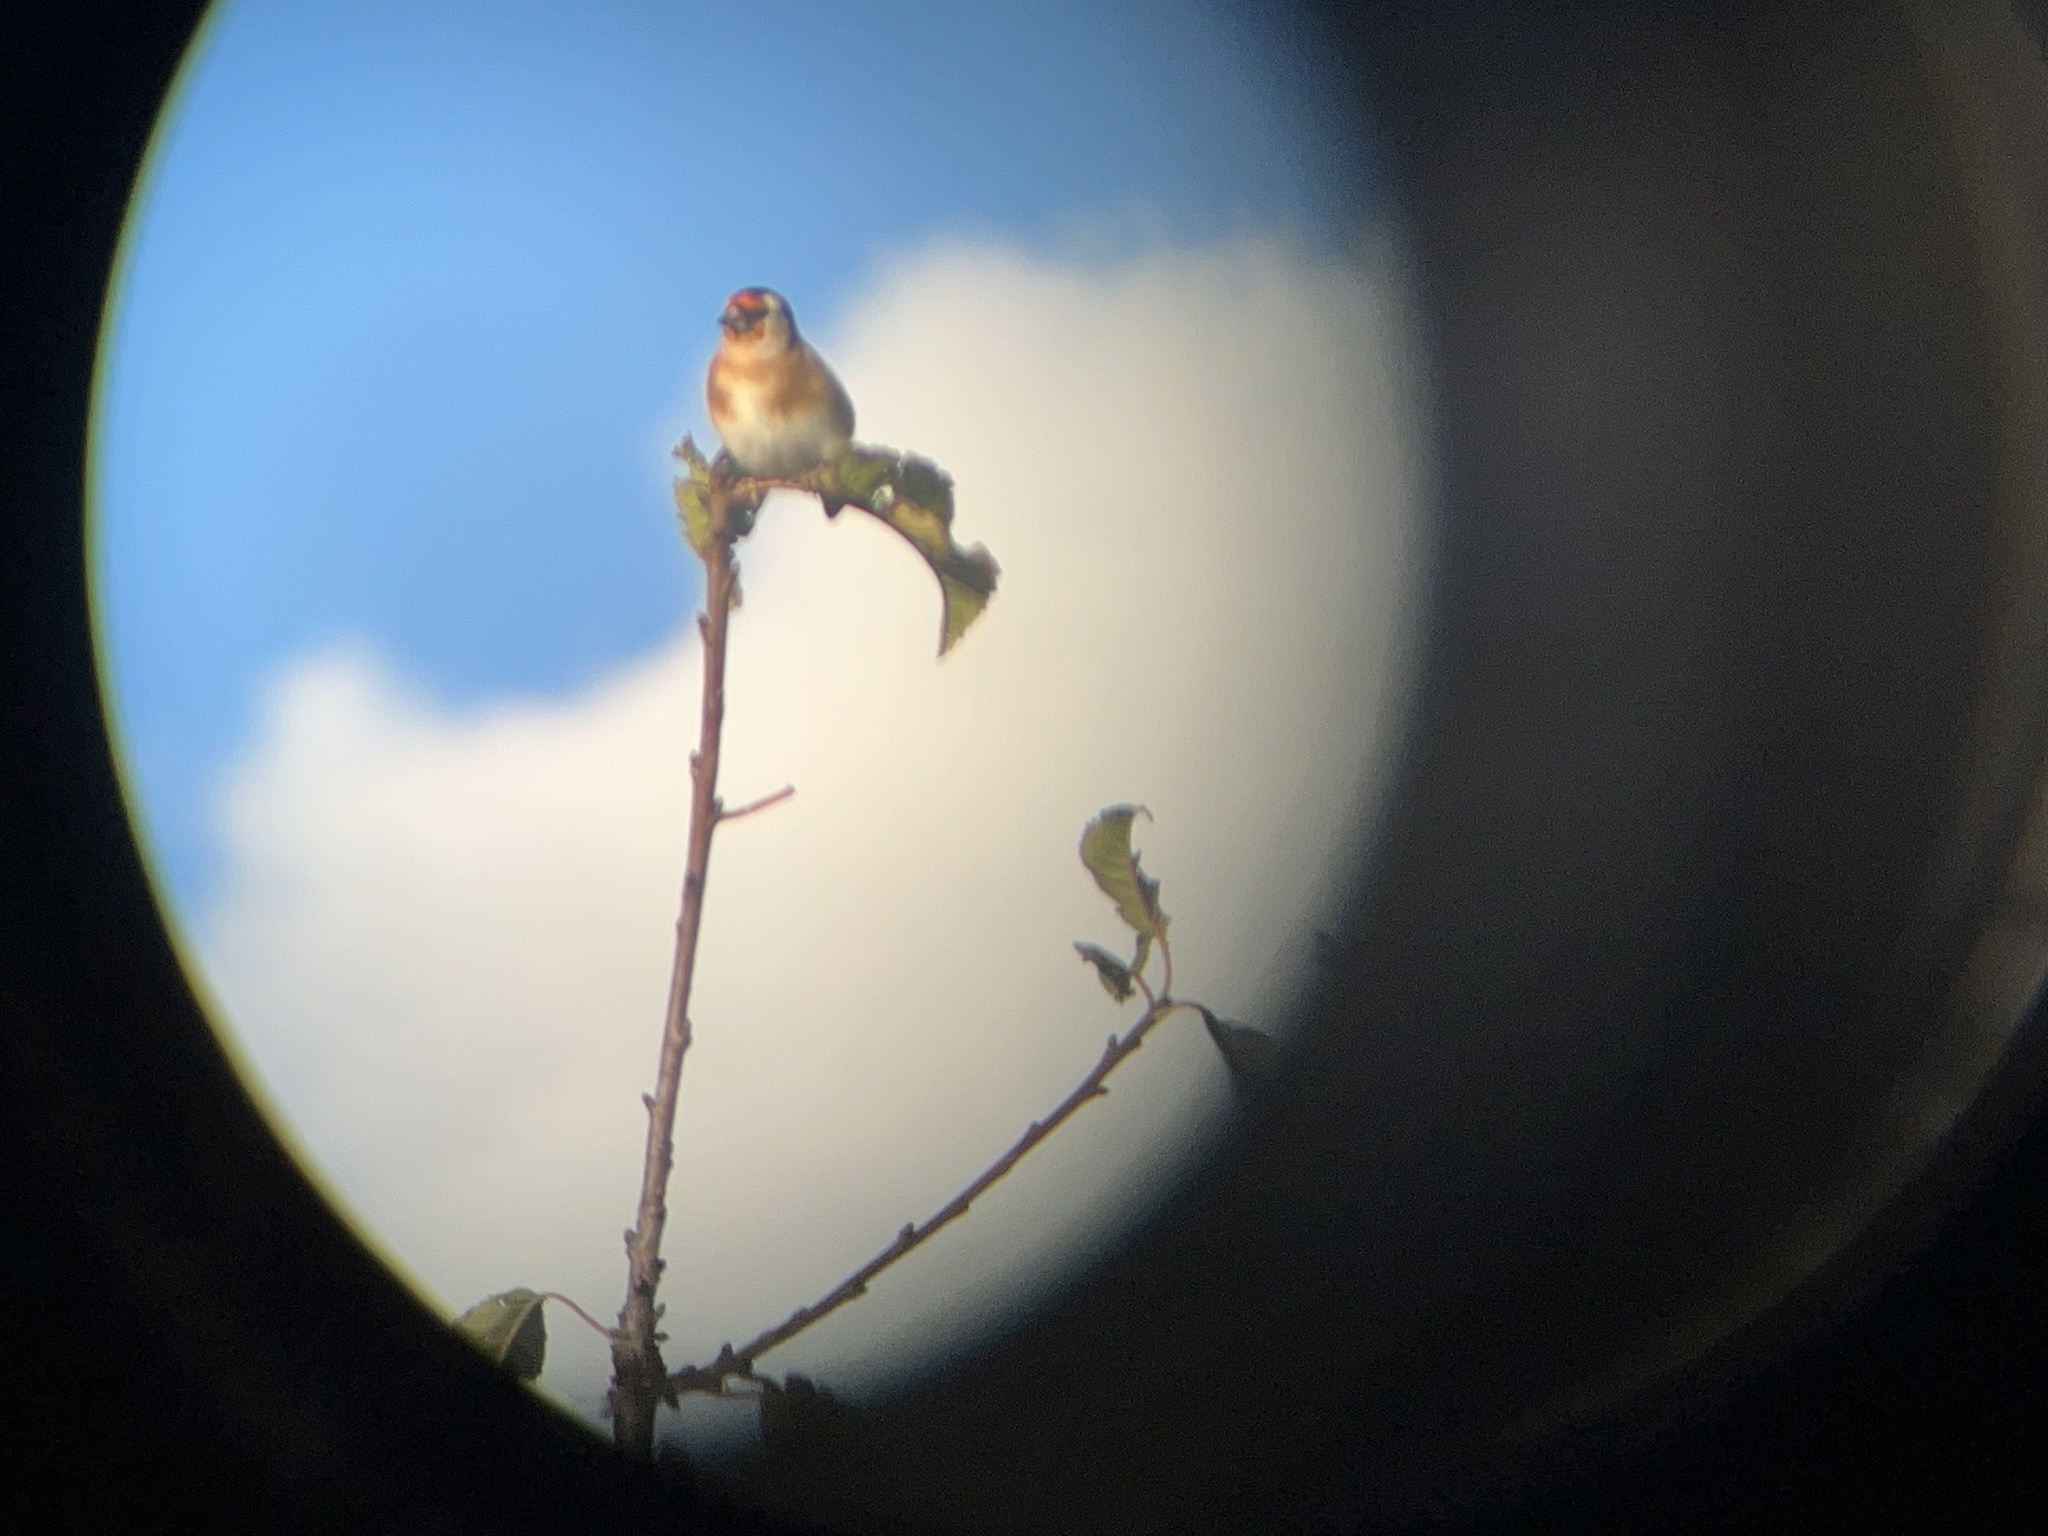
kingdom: Animalia
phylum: Chordata
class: Aves
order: Passeriformes
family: Fringillidae
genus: Carduelis
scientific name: Carduelis carduelis
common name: European goldfinch
